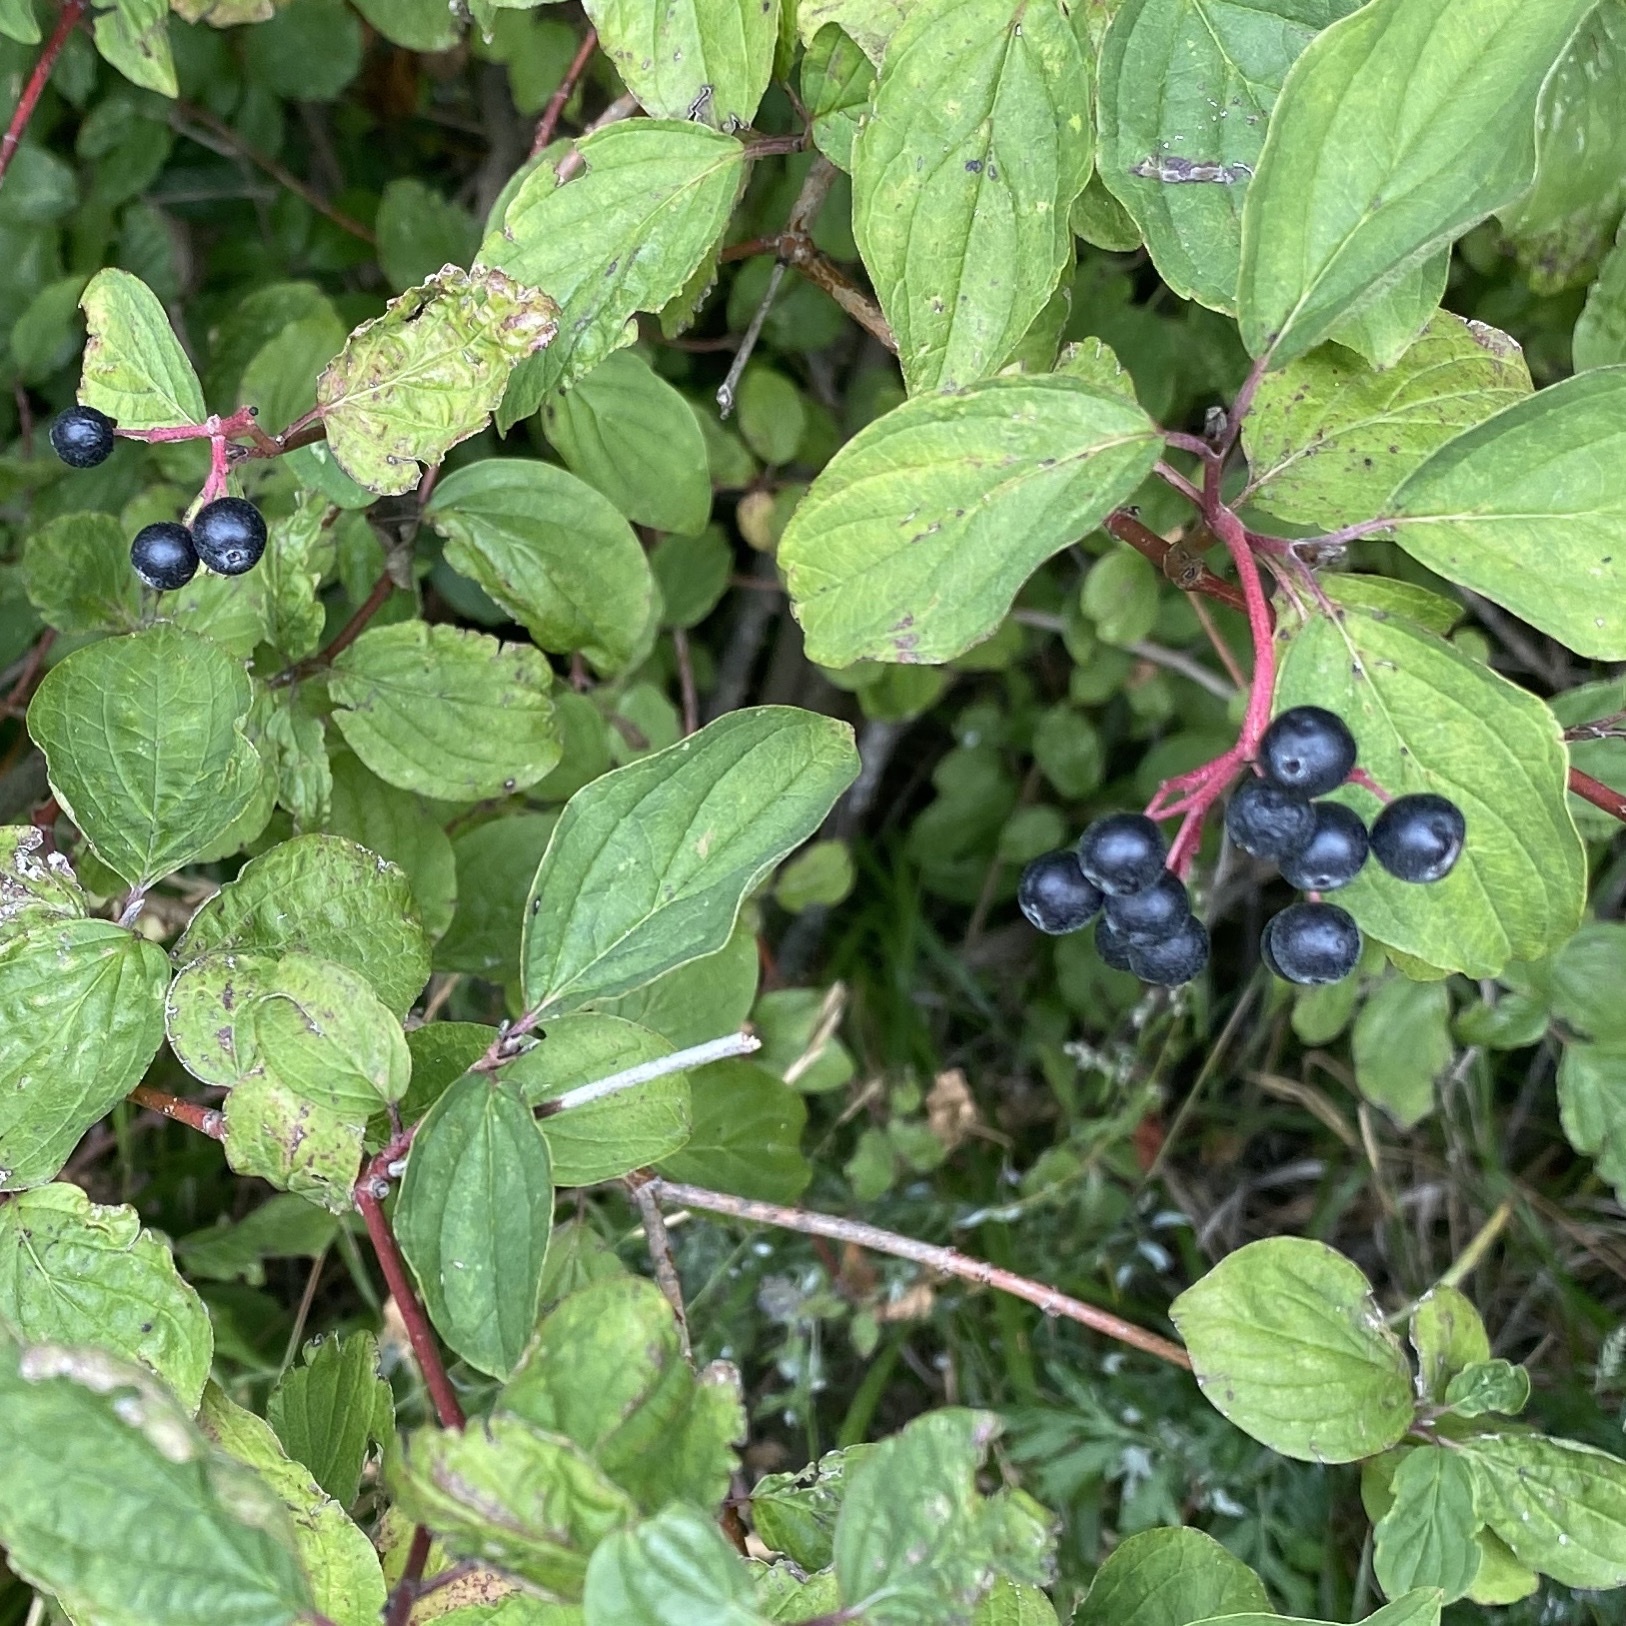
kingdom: Plantae
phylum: Tracheophyta
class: Magnoliopsida
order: Cornales
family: Cornaceae
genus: Cornus
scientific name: Cornus sanguinea
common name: Dogwood
